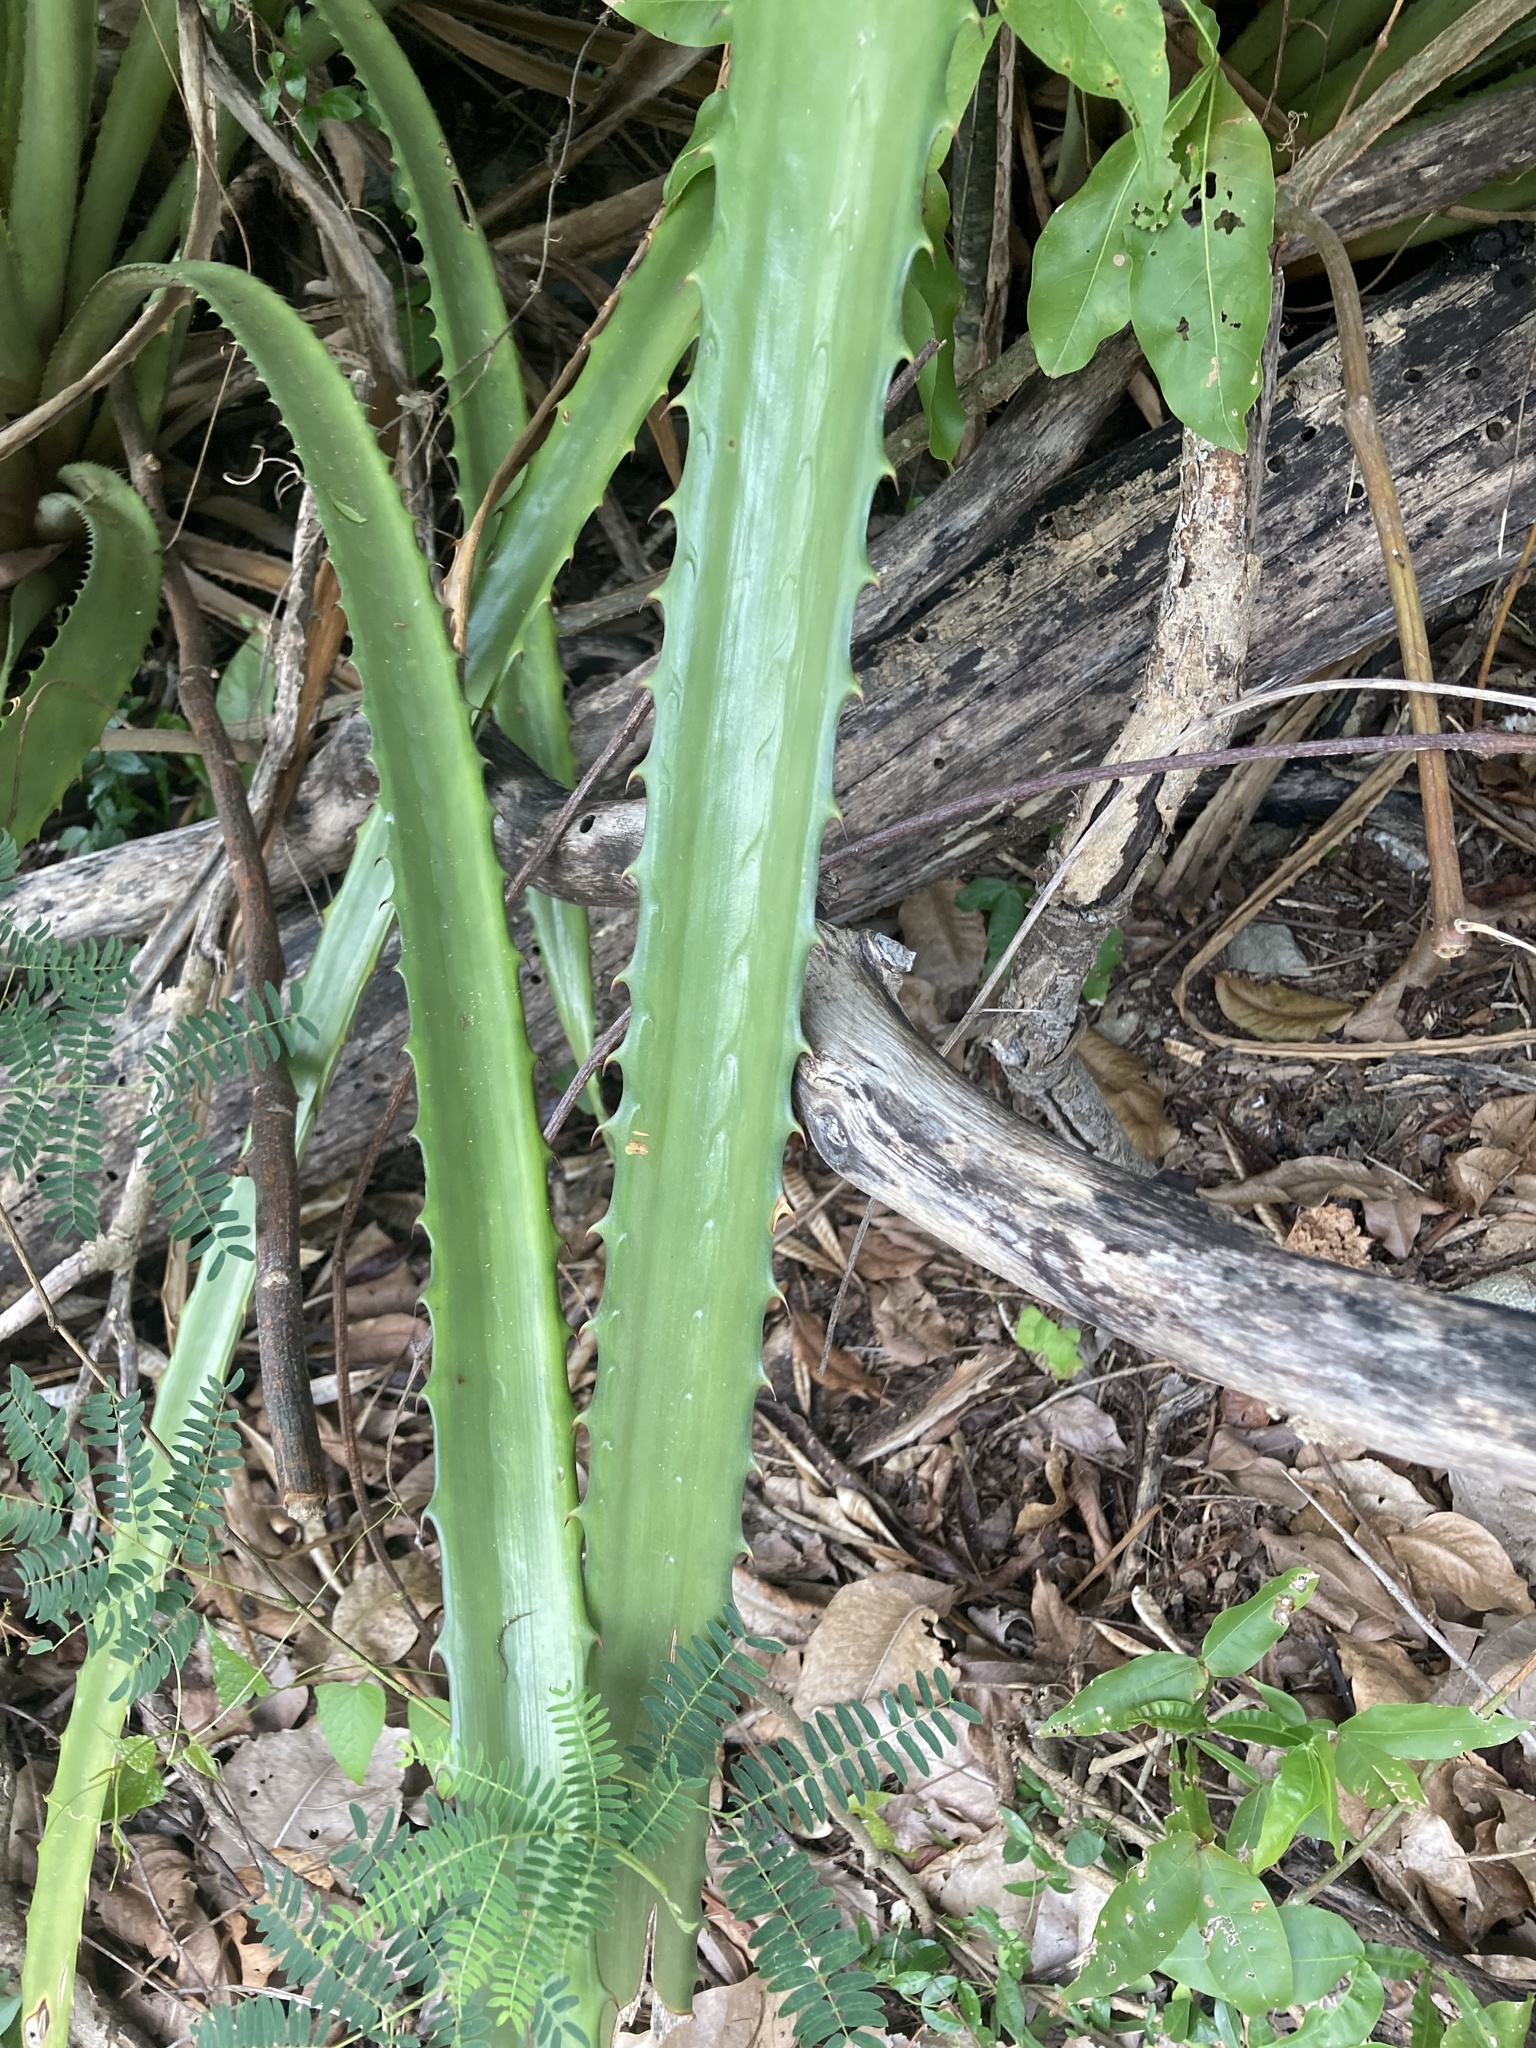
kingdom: Plantae
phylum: Tracheophyta
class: Liliopsida
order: Poales
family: Bromeliaceae
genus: Bromelia
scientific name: Bromelia pinguin
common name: Pinguin
